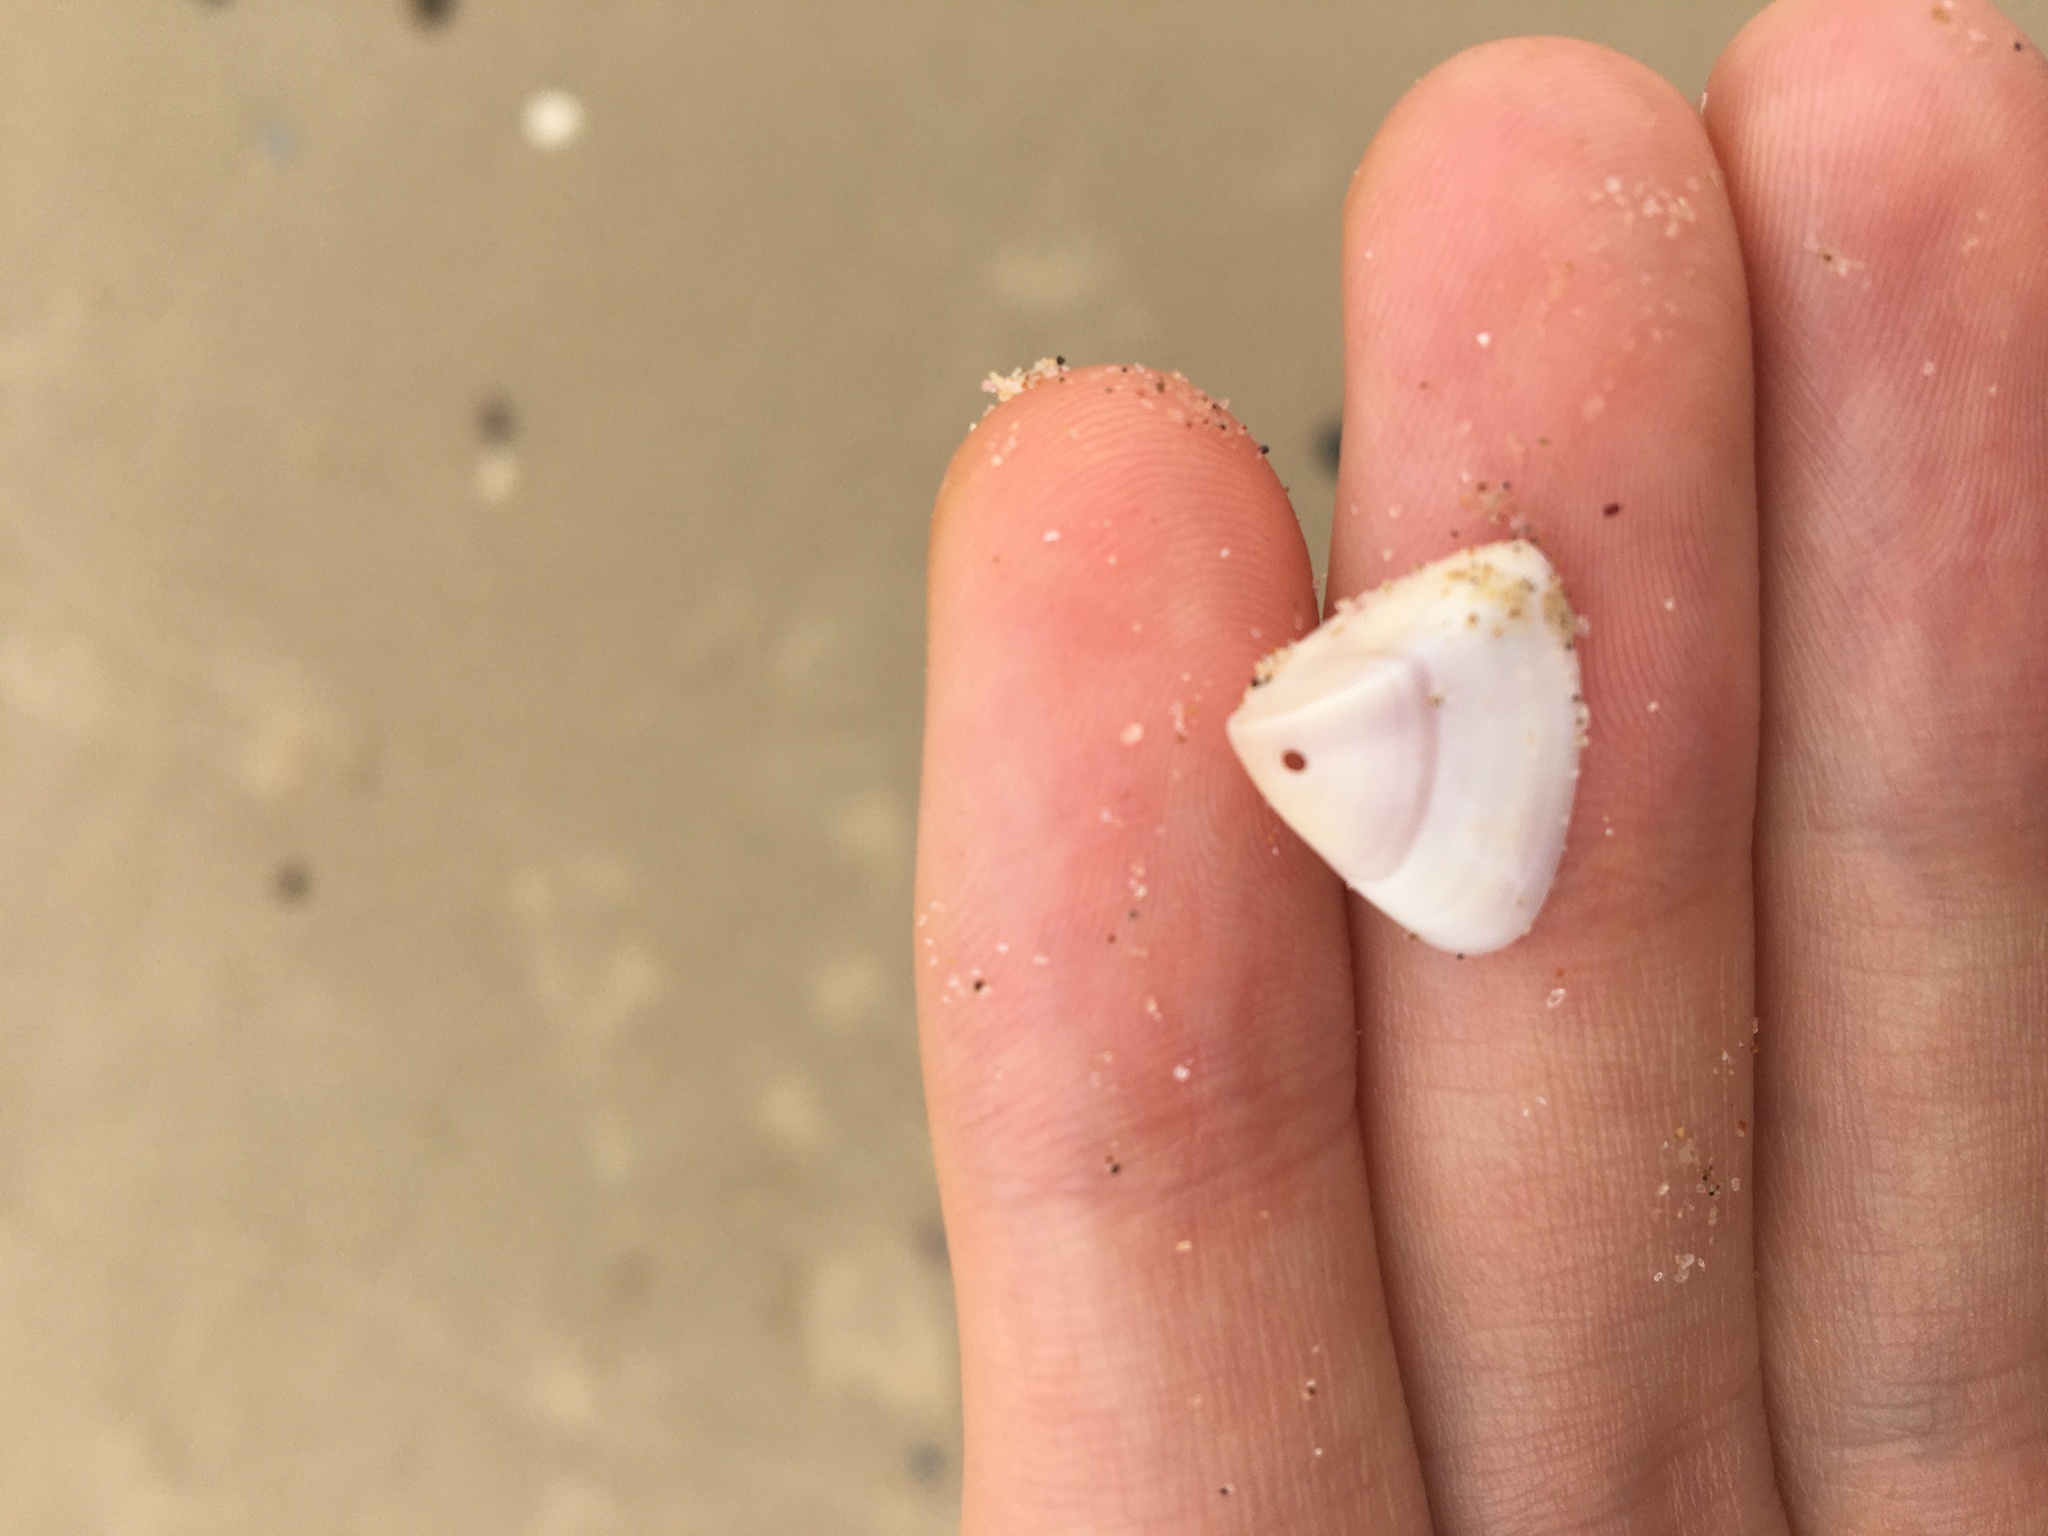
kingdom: Animalia
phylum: Mollusca
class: Bivalvia
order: Cardiida
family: Donacidae
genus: Donax
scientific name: Donax brazieri
